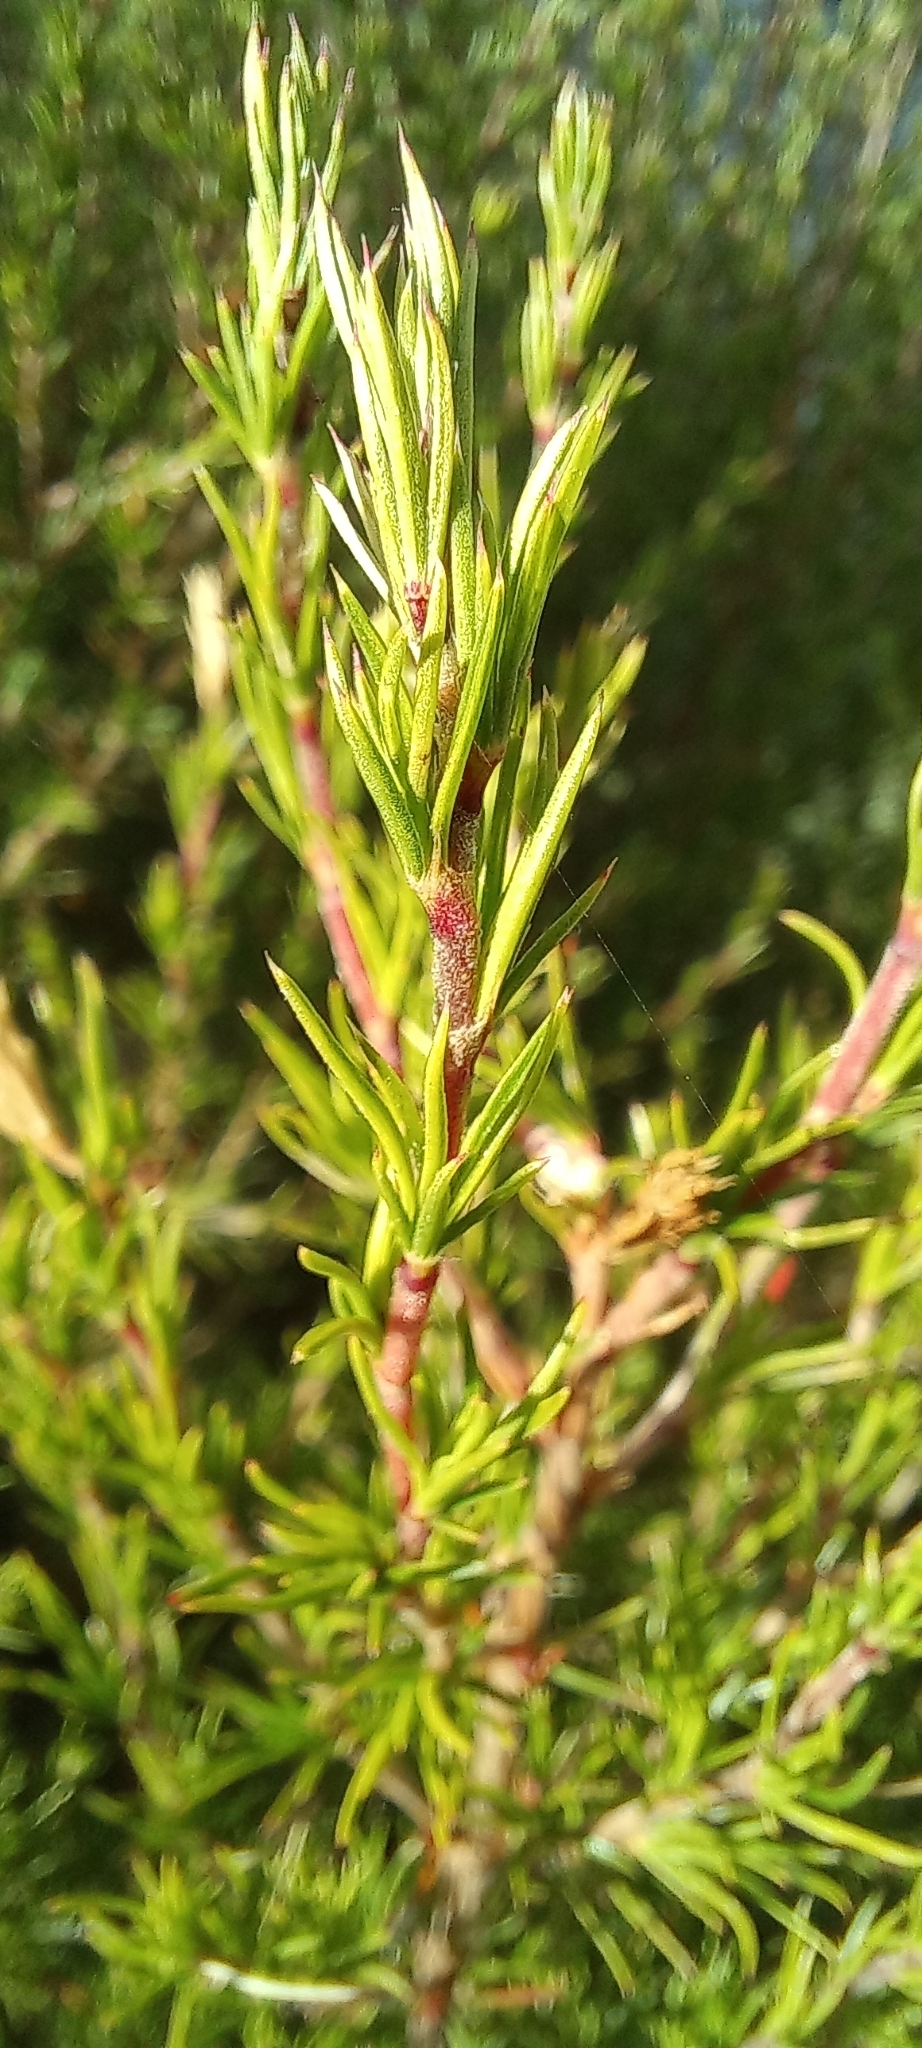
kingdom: Plantae
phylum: Tracheophyta
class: Magnoliopsida
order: Rosales
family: Rosaceae
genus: Cliffortia
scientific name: Cliffortia atrata
